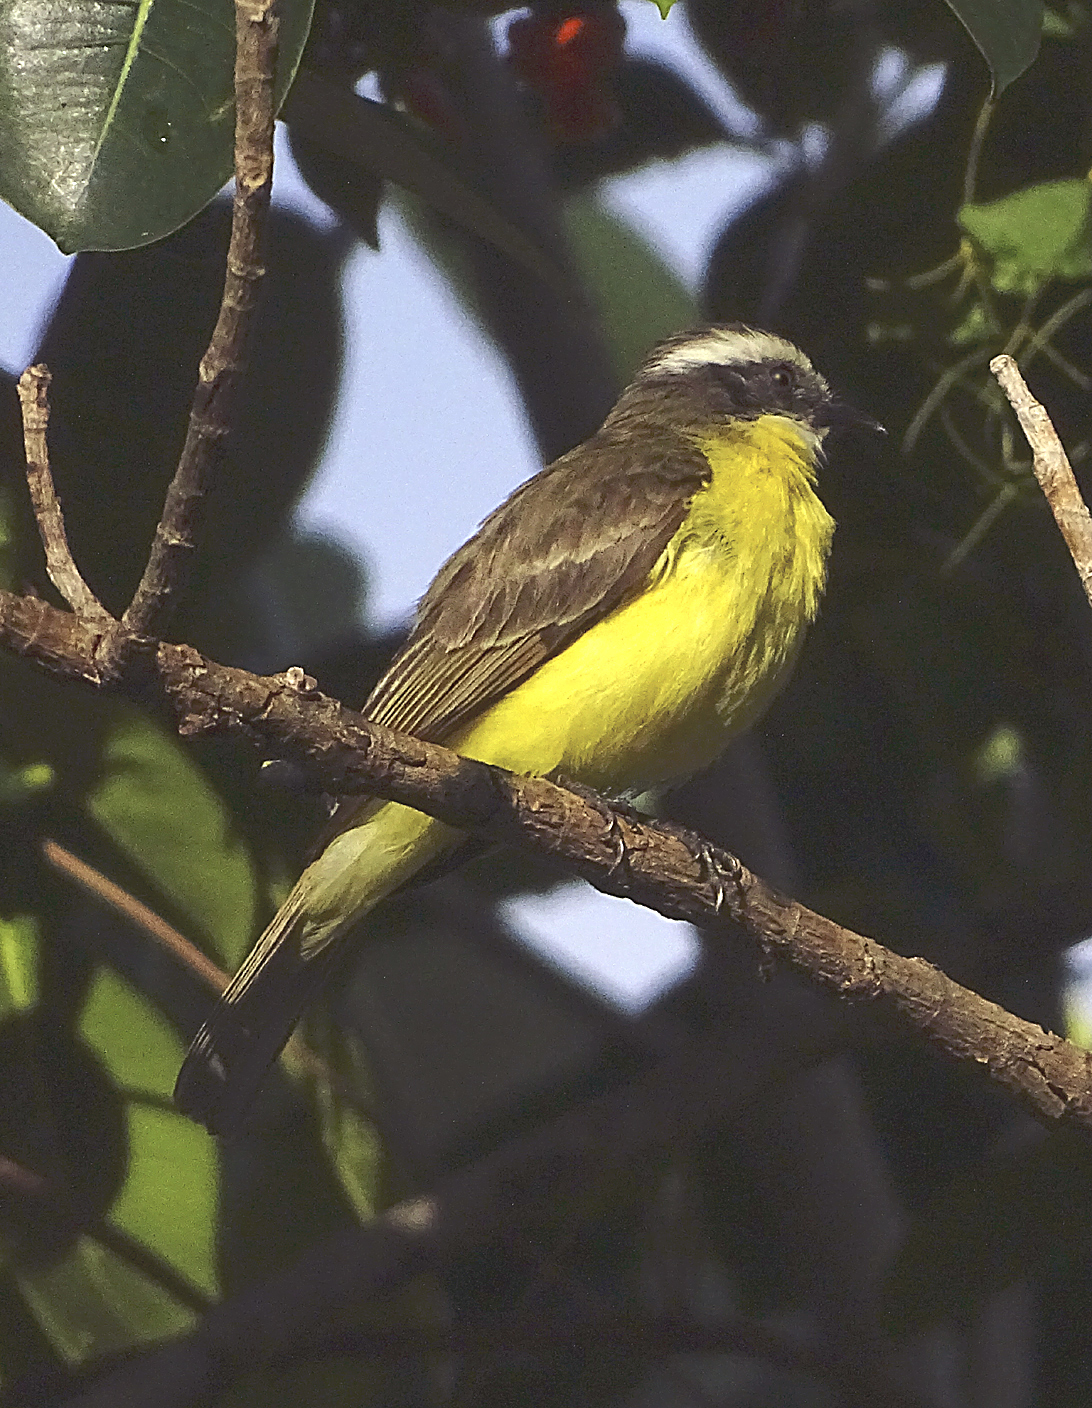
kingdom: Animalia
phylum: Chordata
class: Aves
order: Passeriformes
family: Tyrannidae
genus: Myiozetetes
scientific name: Myiozetetes similis
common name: Social flycatcher
